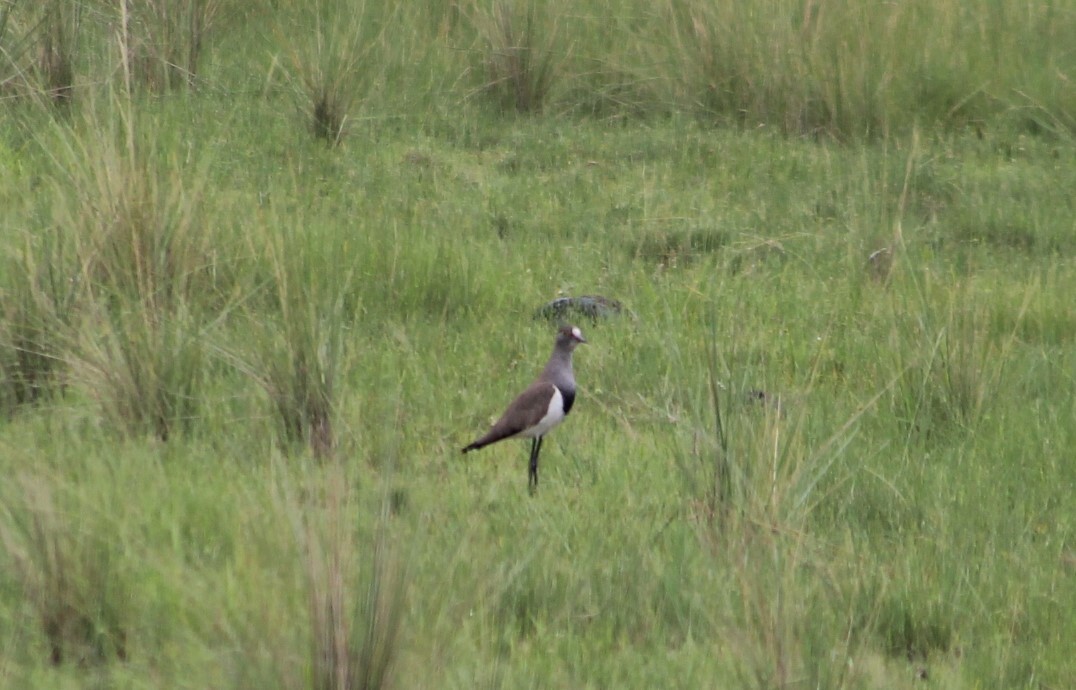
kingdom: Animalia
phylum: Chordata
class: Aves
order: Charadriiformes
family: Charadriidae
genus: Vanellus
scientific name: Vanellus lugubris
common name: Senegal lapwing
